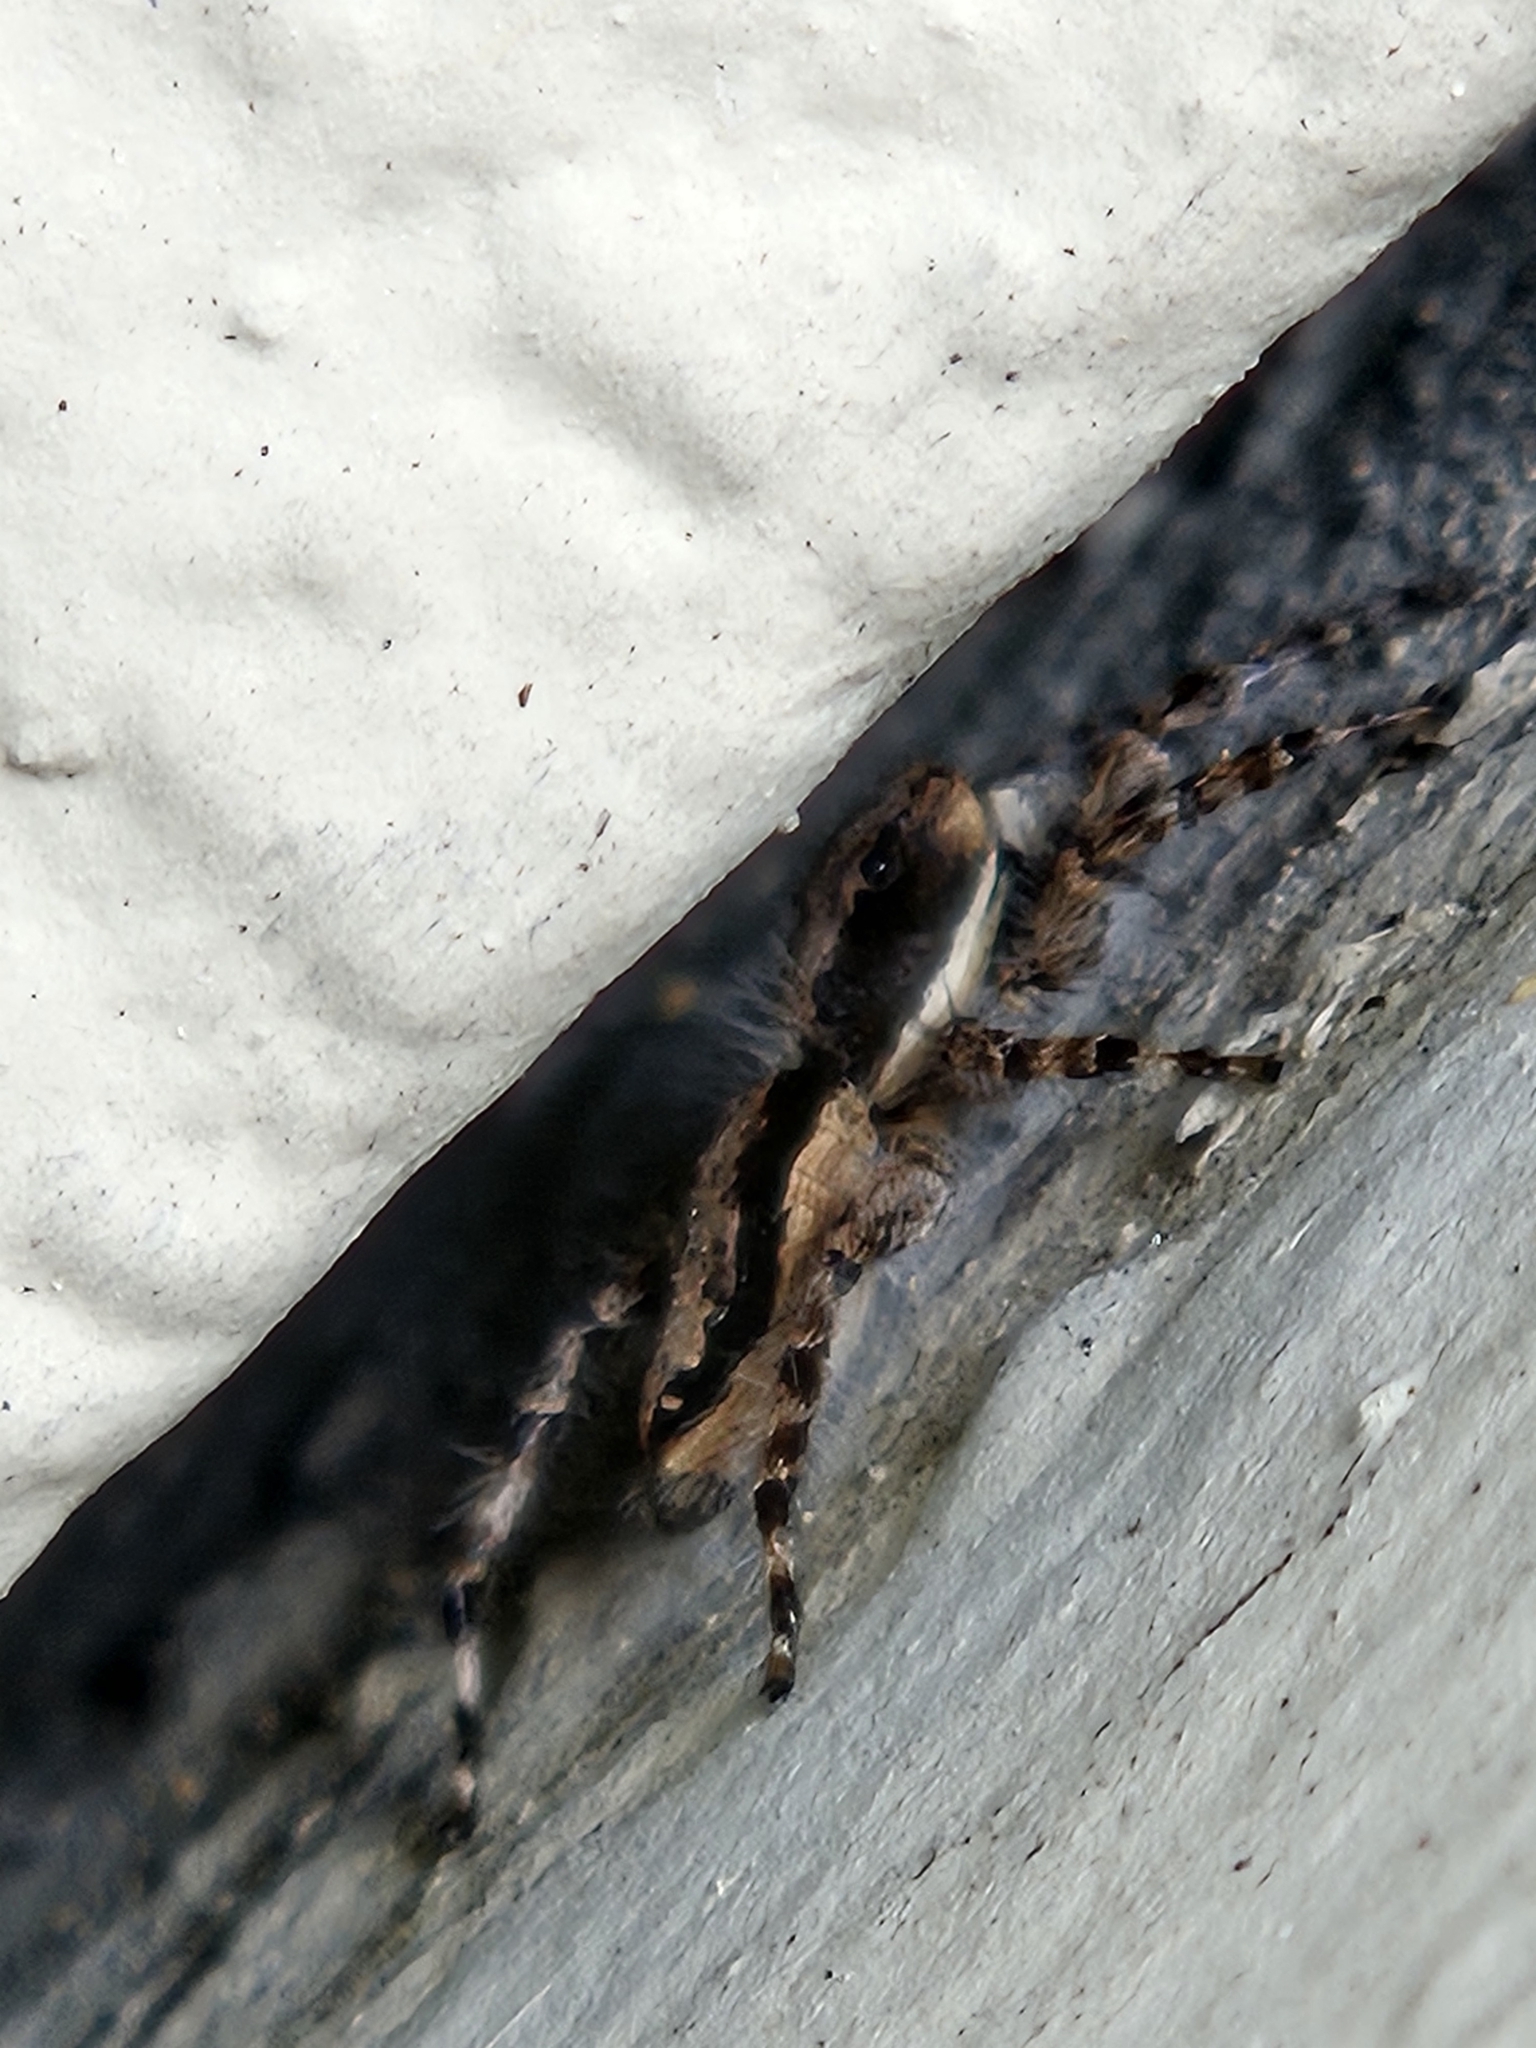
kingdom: Animalia
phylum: Arthropoda
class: Arachnida
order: Araneae
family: Salticidae
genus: Menemerus
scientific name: Menemerus bivittatus
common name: Gray wall jumper
